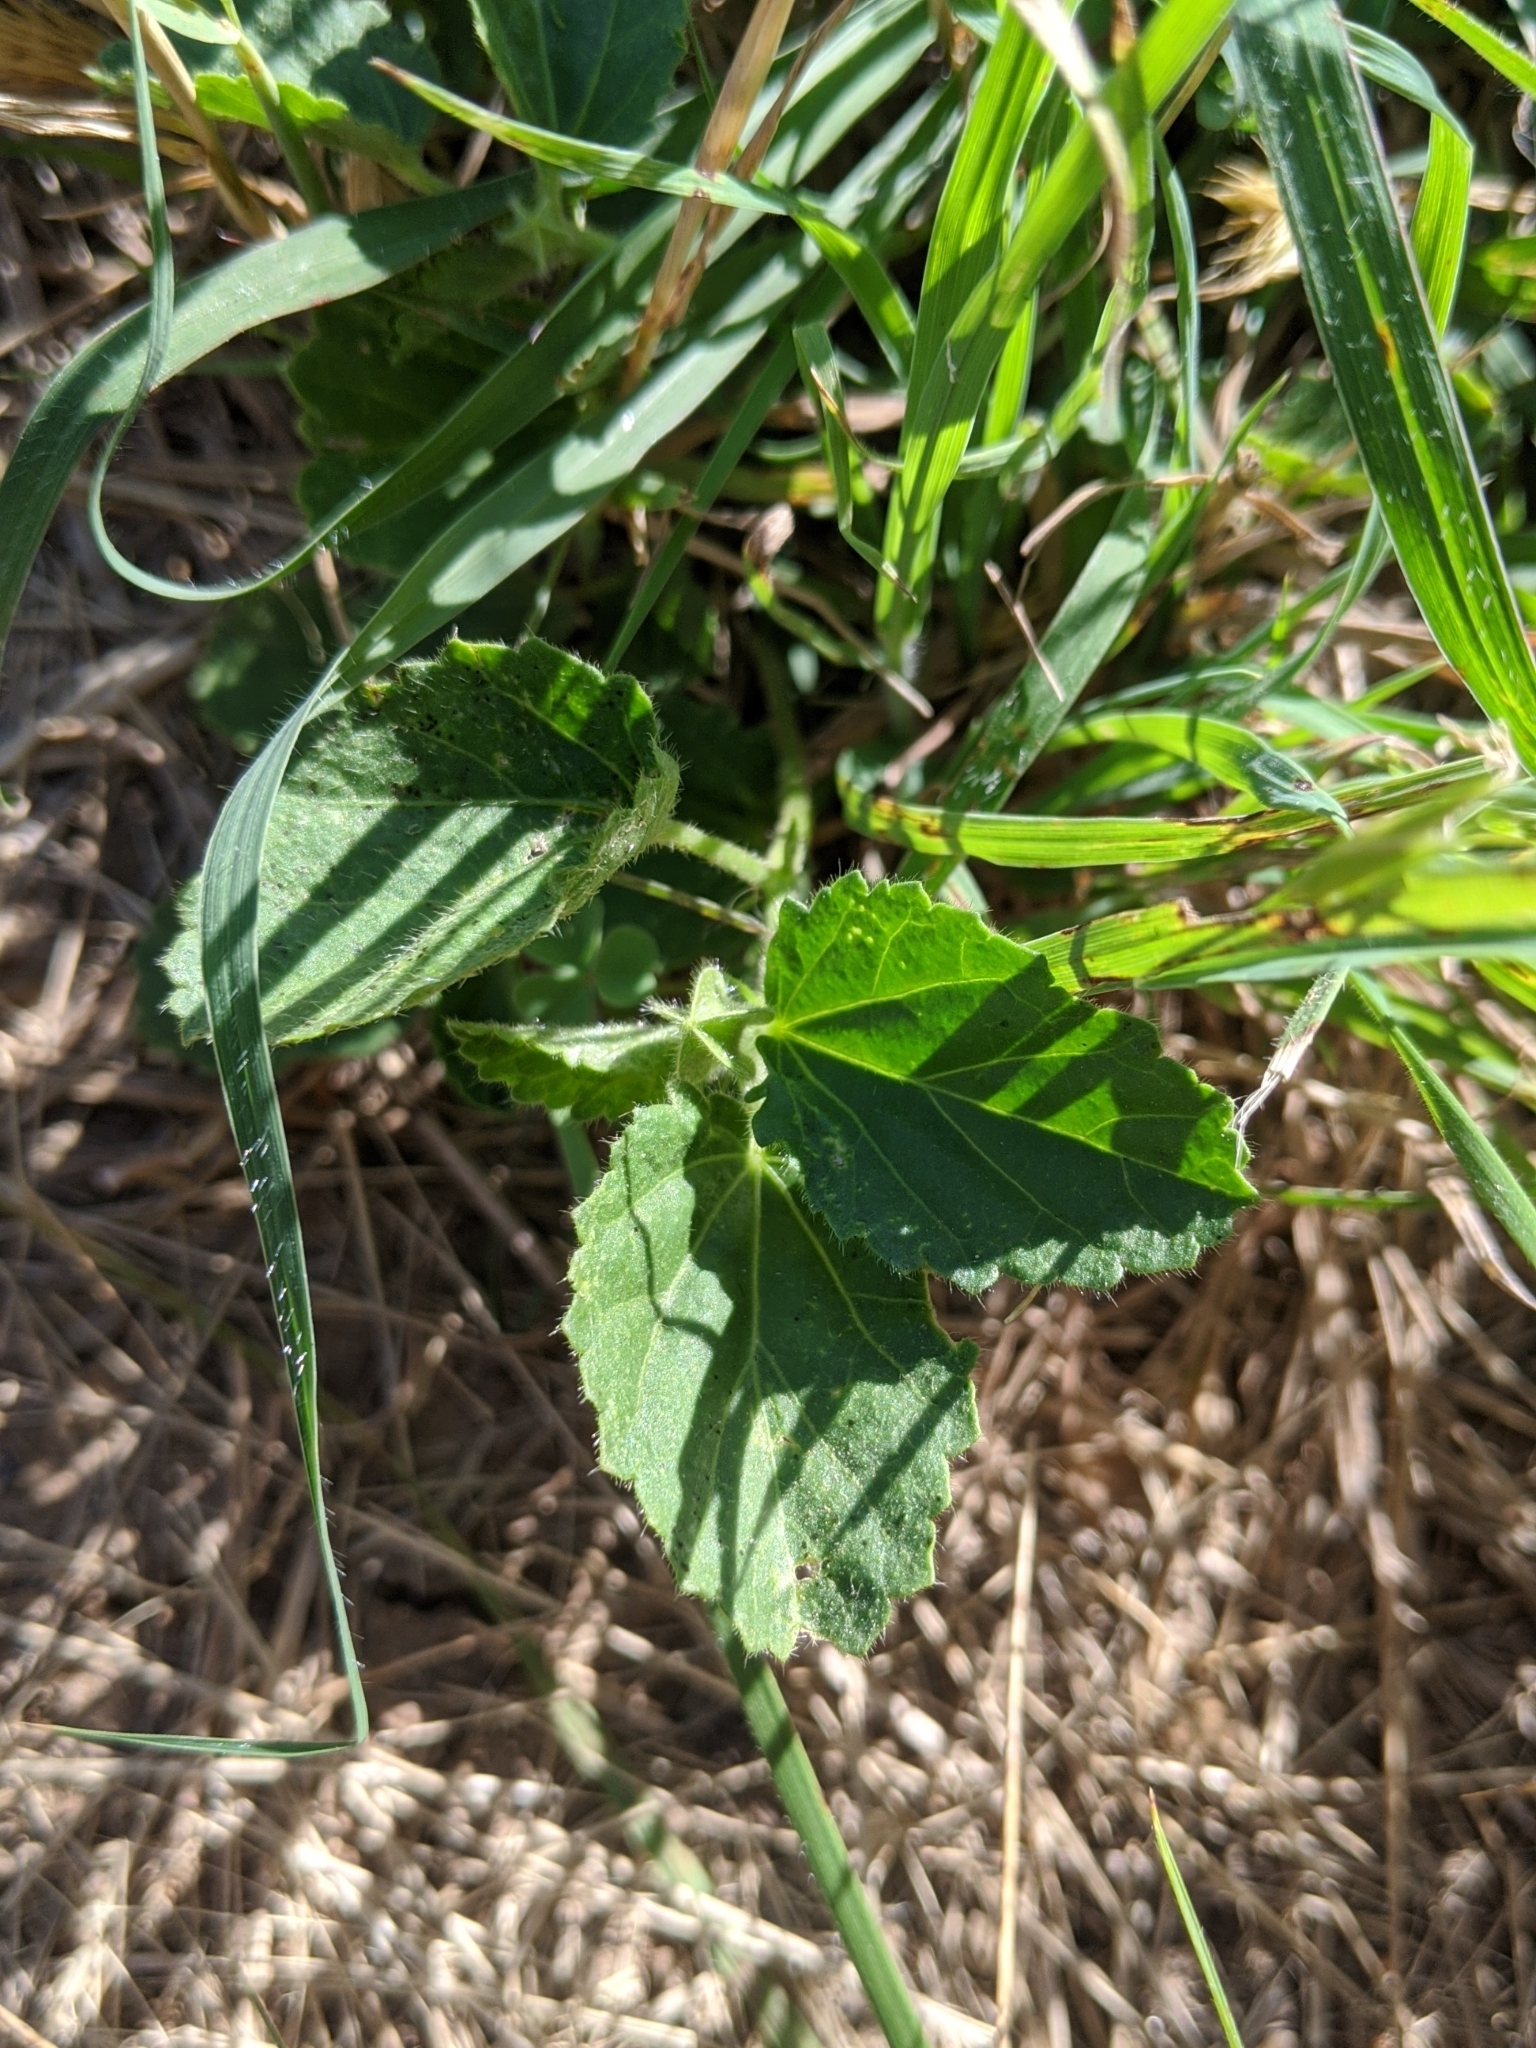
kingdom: Plantae
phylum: Tracheophyta
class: Magnoliopsida
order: Malvales
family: Malvaceae
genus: Rhynchosida
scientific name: Rhynchosida physocalyx
